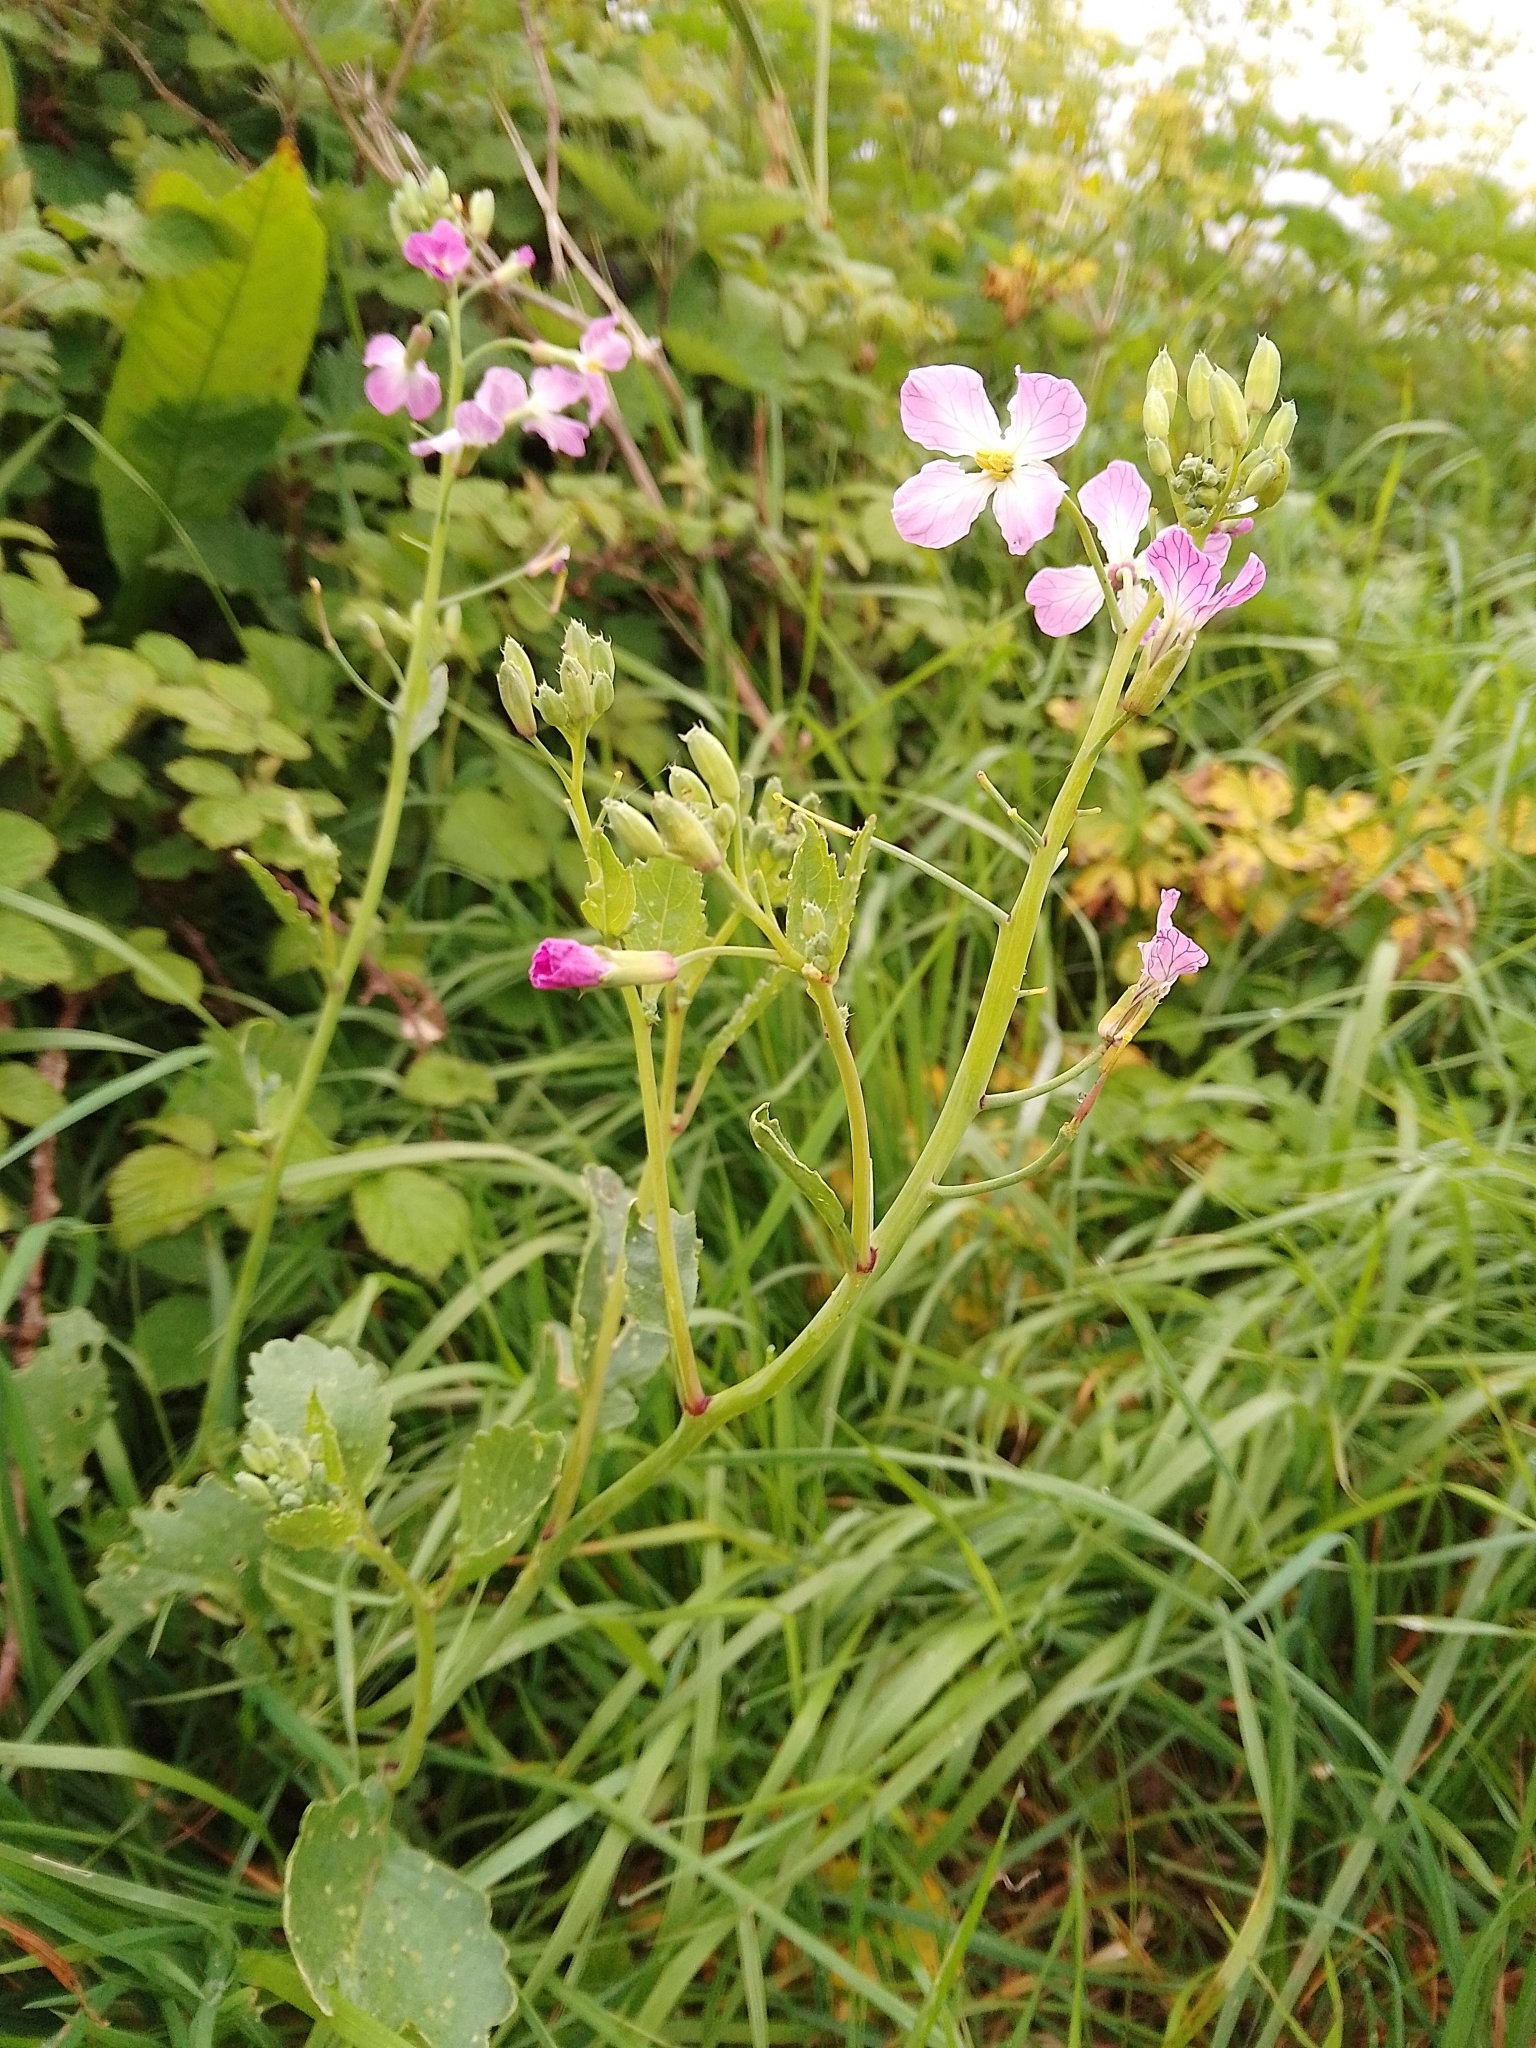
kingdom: Plantae
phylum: Tracheophyta
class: Magnoliopsida
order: Brassicales
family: Brassicaceae
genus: Raphanus
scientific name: Raphanus sativus
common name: Cultivated radish
